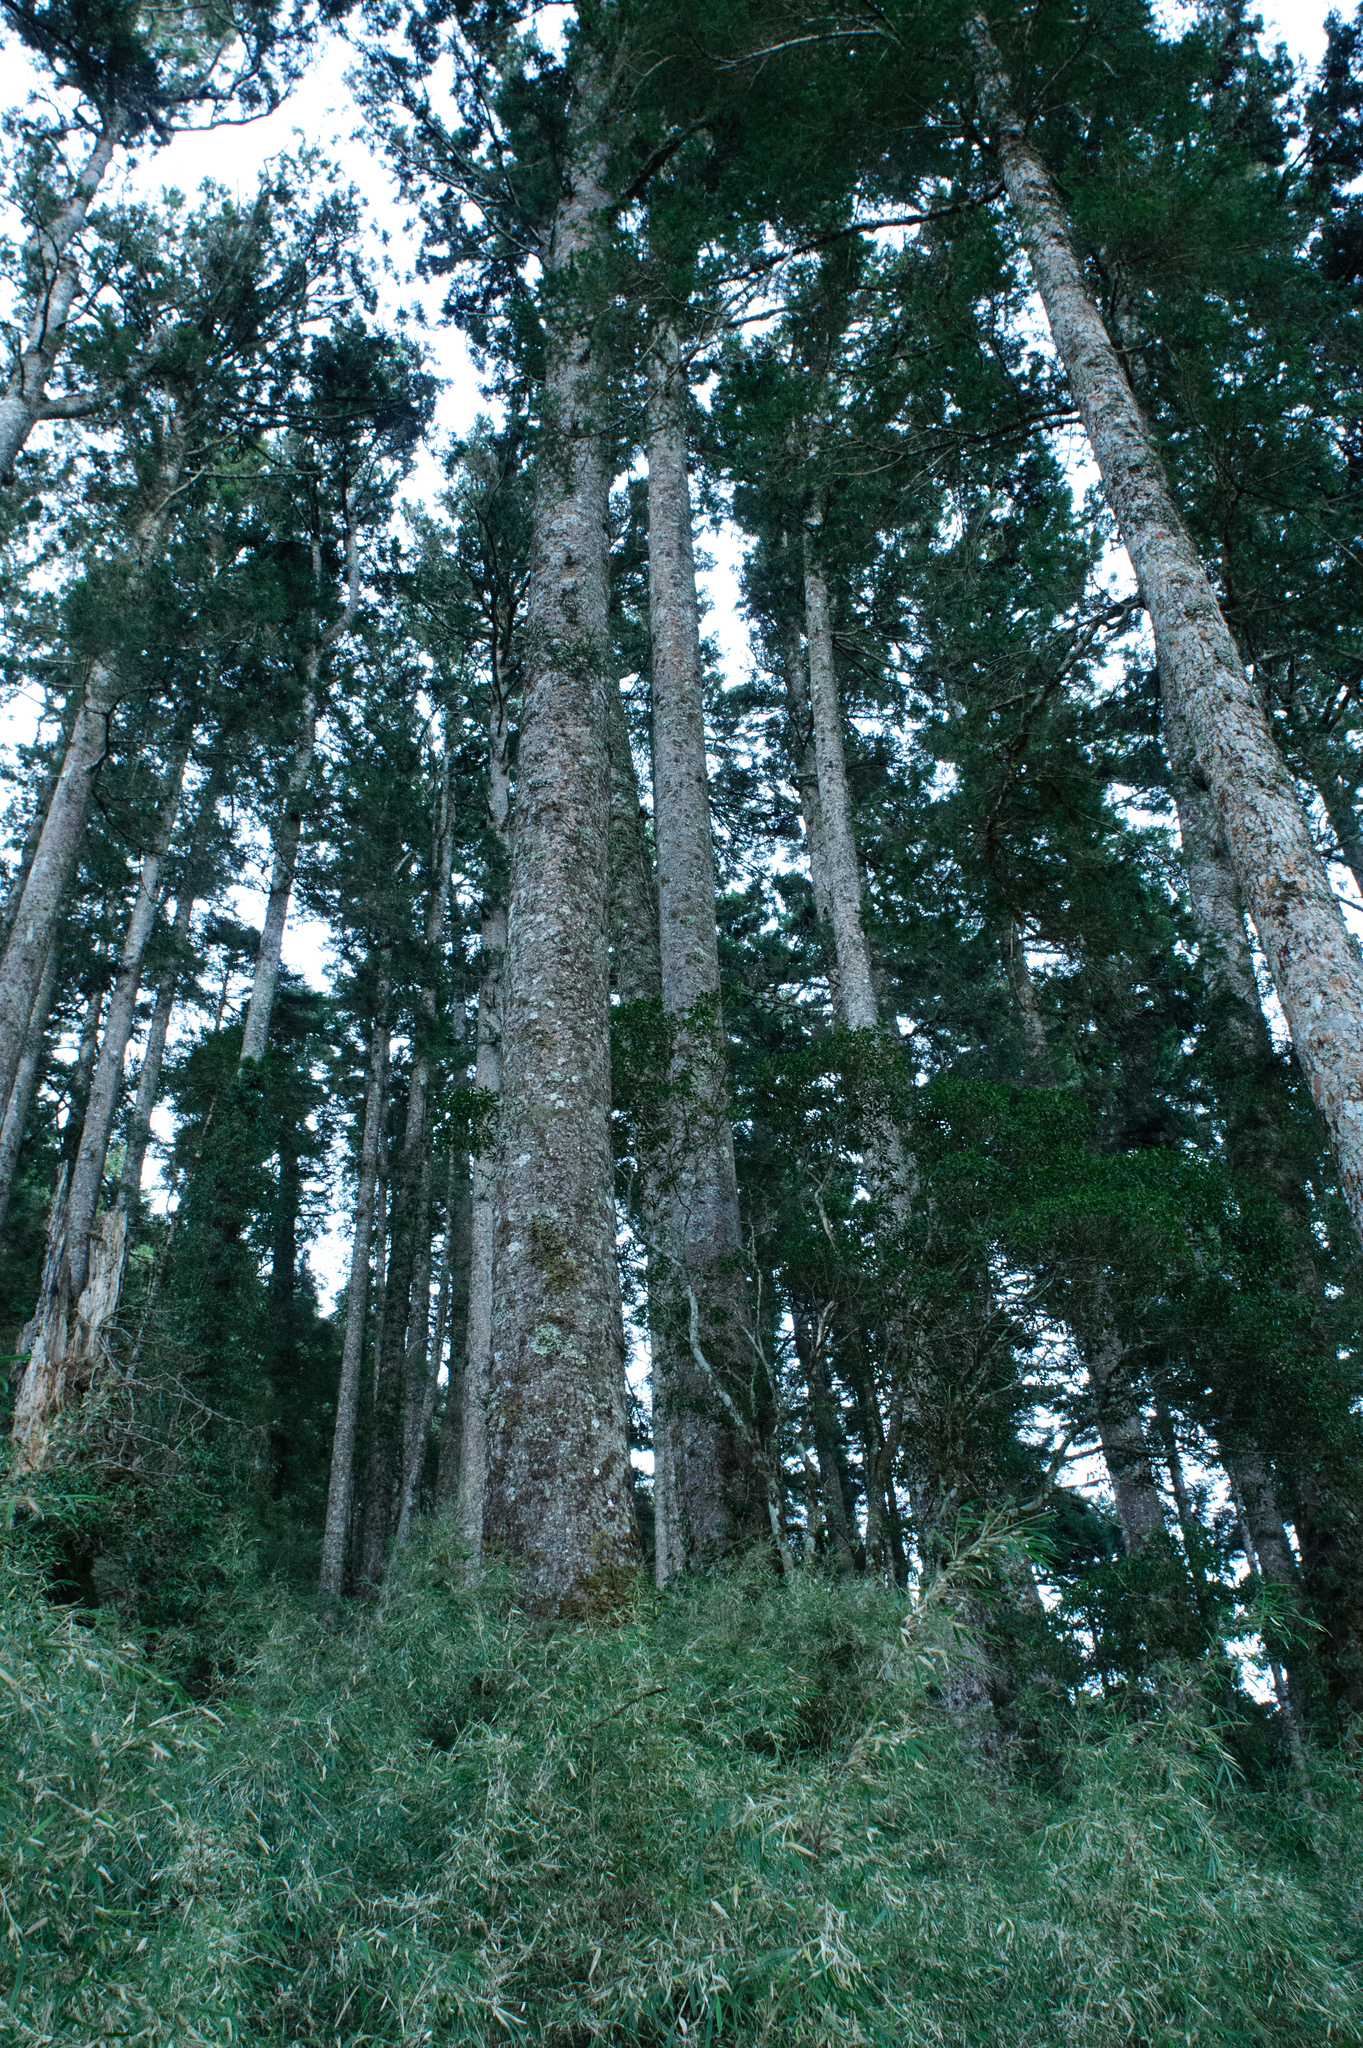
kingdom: Plantae
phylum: Tracheophyta
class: Pinopsida
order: Pinales
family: Pinaceae
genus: Picea
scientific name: Picea morrisonicola
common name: Mount morrison spruce
